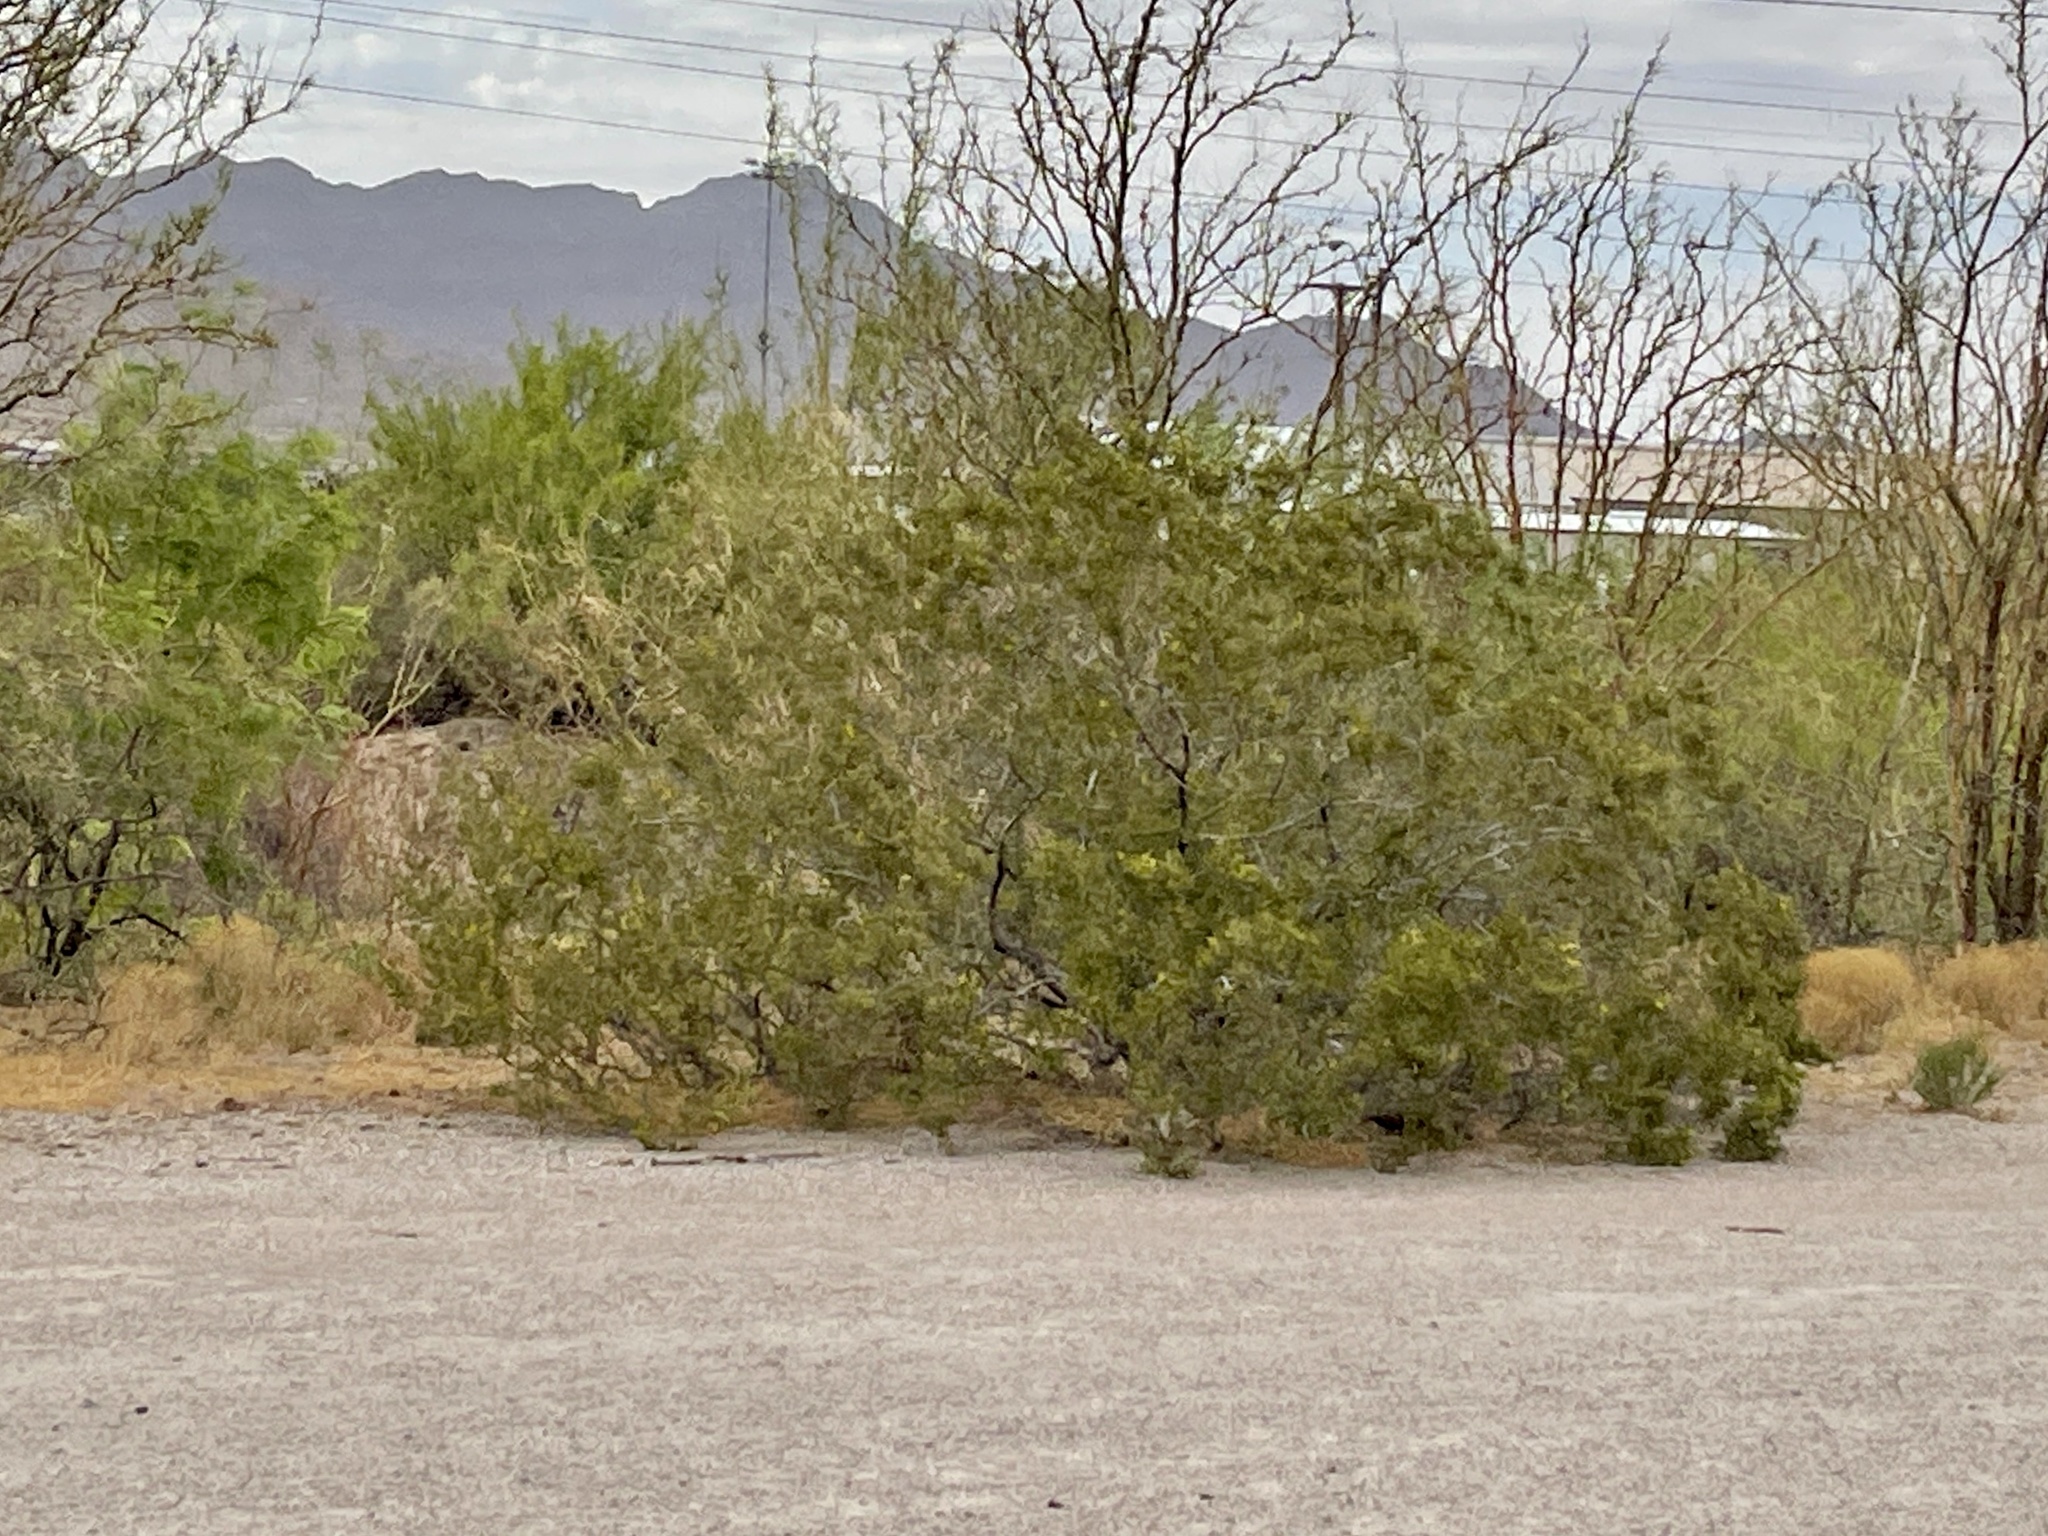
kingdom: Plantae
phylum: Tracheophyta
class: Magnoliopsida
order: Zygophyllales
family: Zygophyllaceae
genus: Larrea
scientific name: Larrea tridentata
